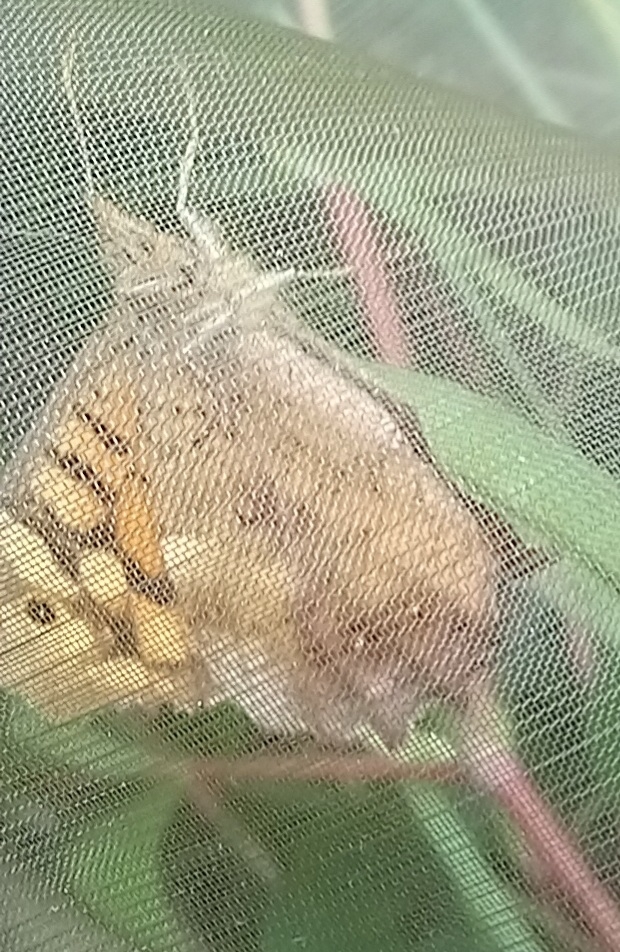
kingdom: Animalia
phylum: Arthropoda
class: Insecta
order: Lepidoptera
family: Nymphalidae
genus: Pararge
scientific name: Pararge aegeria
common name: Speckled wood
